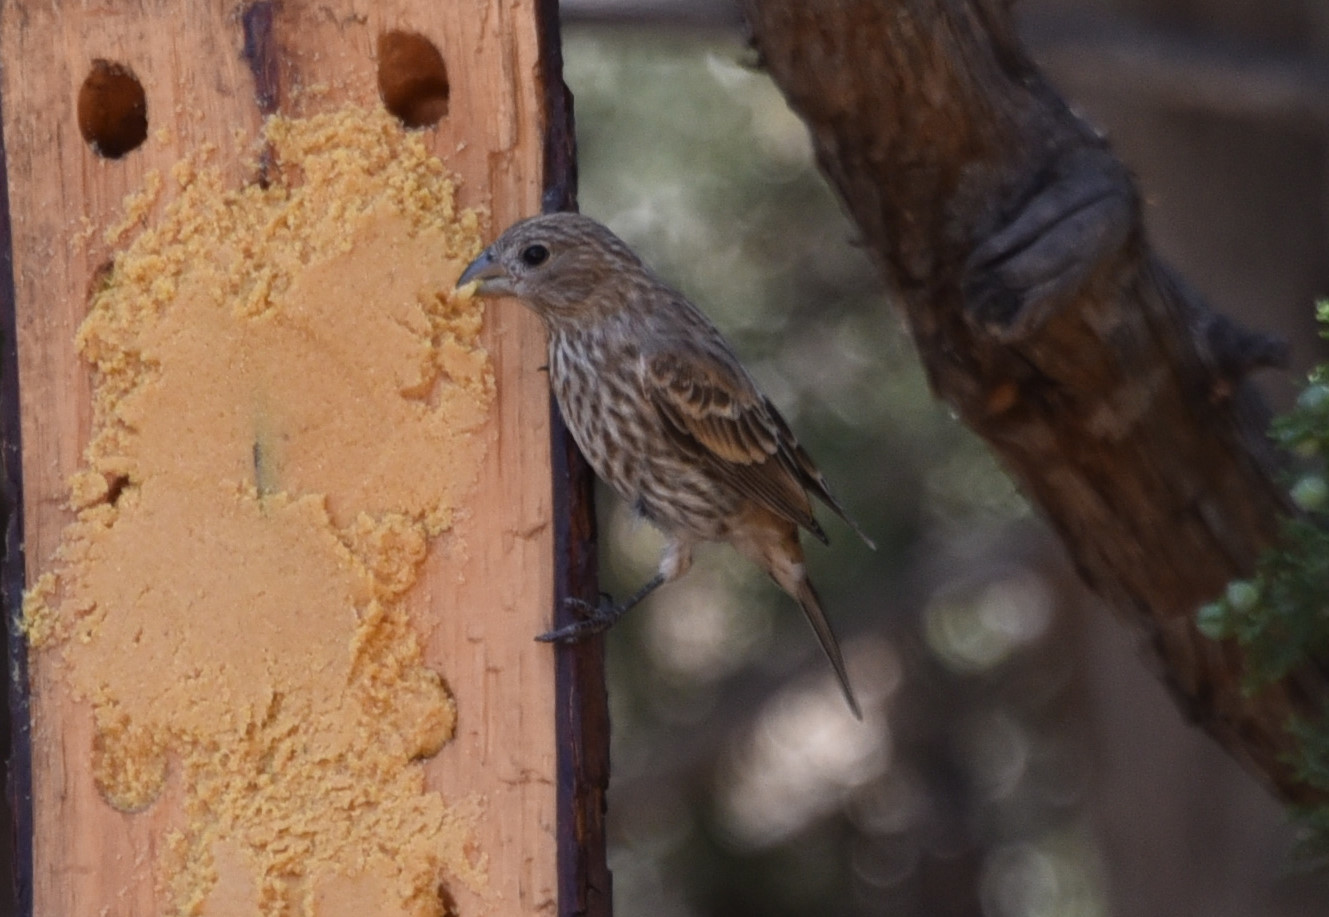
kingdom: Animalia
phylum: Chordata
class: Aves
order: Passeriformes
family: Fringillidae
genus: Haemorhous
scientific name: Haemorhous mexicanus
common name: House finch
